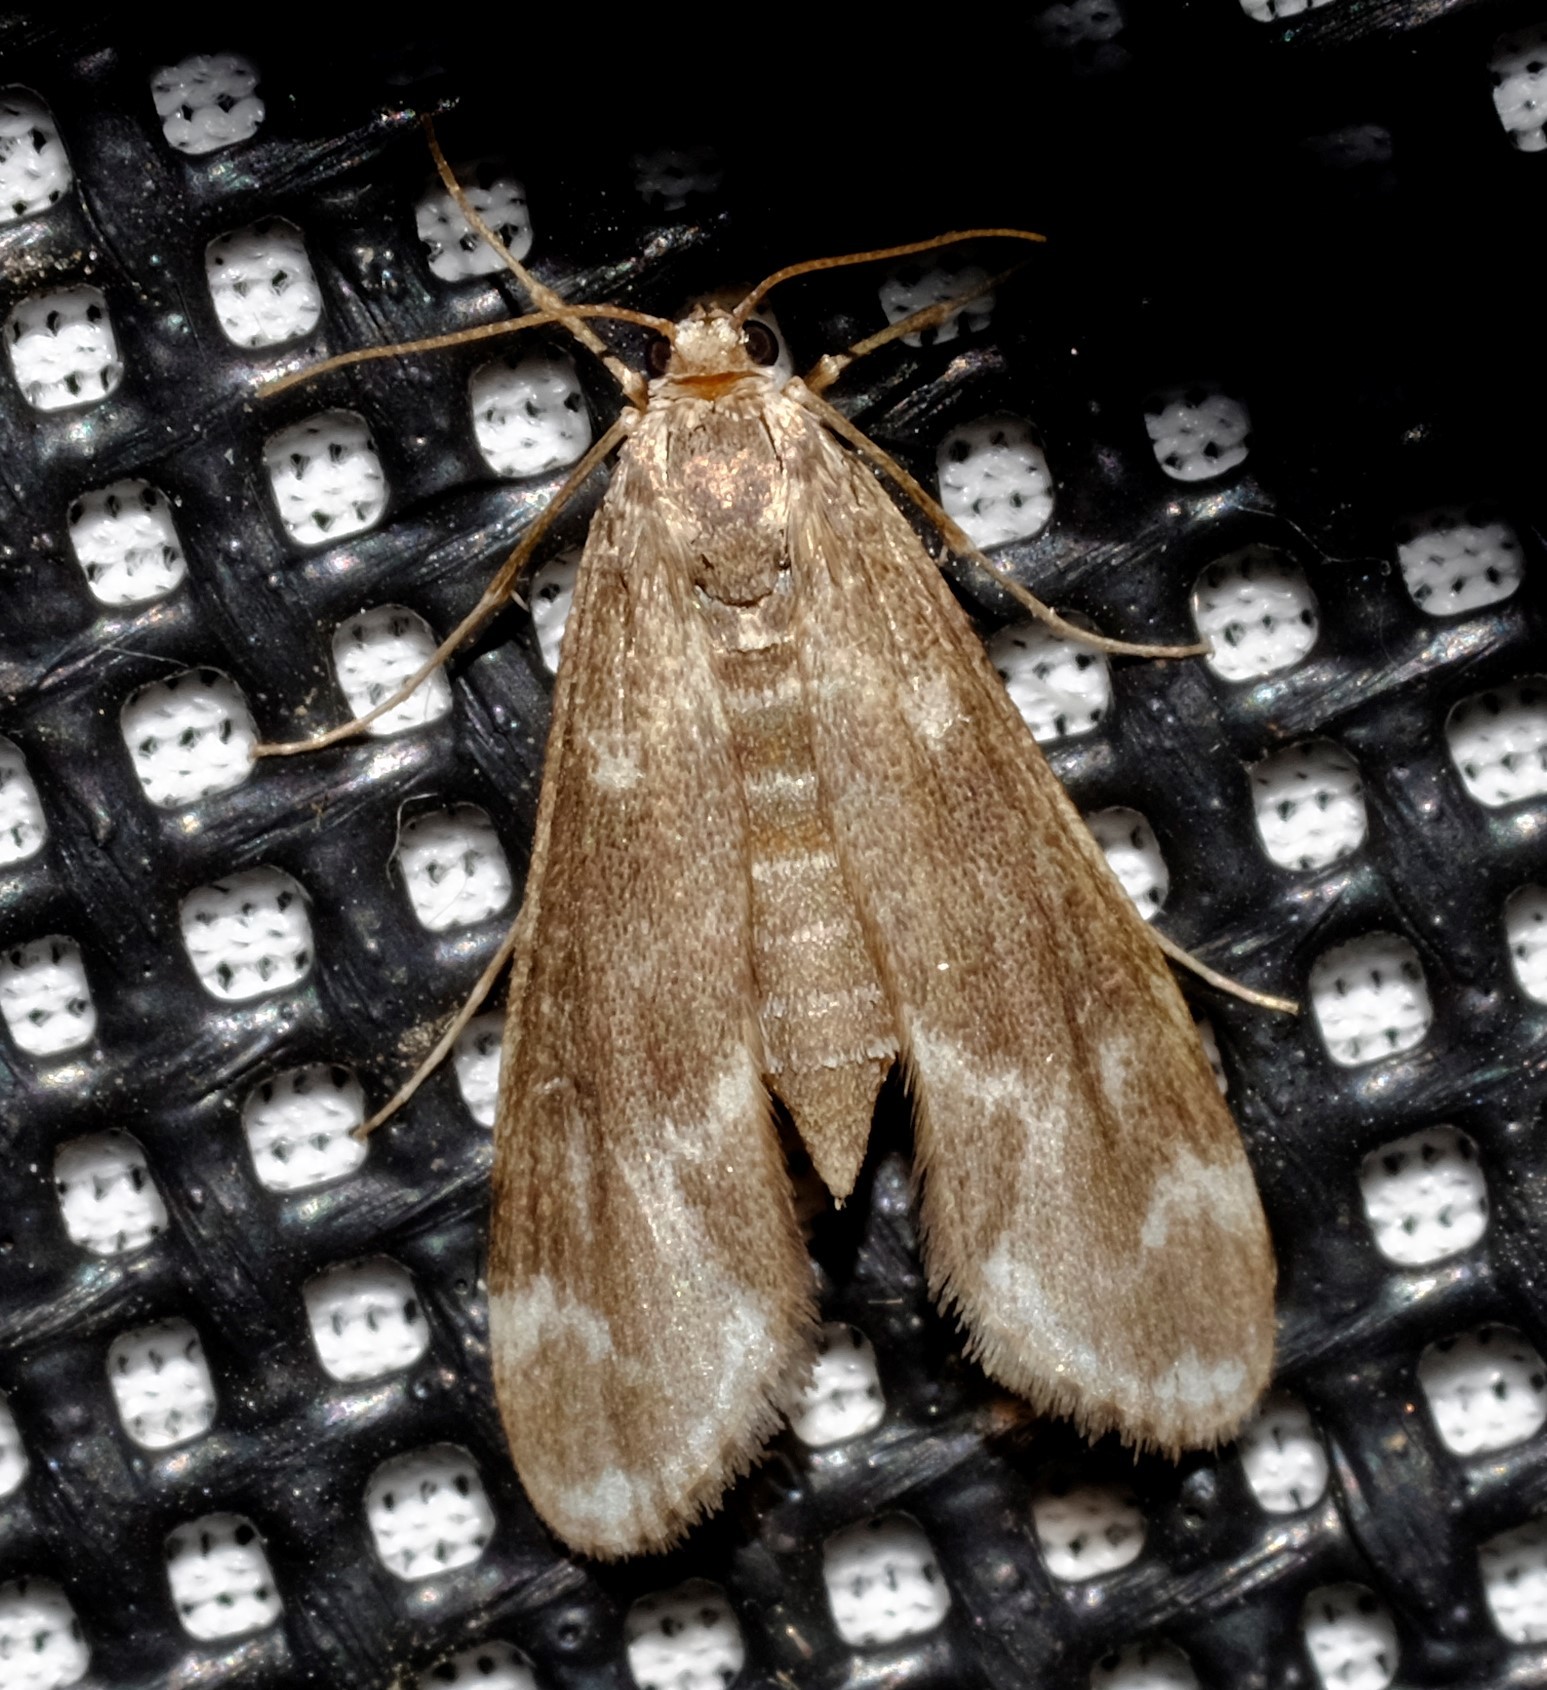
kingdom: Animalia
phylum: Arthropoda
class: Insecta
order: Lepidoptera
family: Crambidae
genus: Hygraula
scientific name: Hygraula nitens
